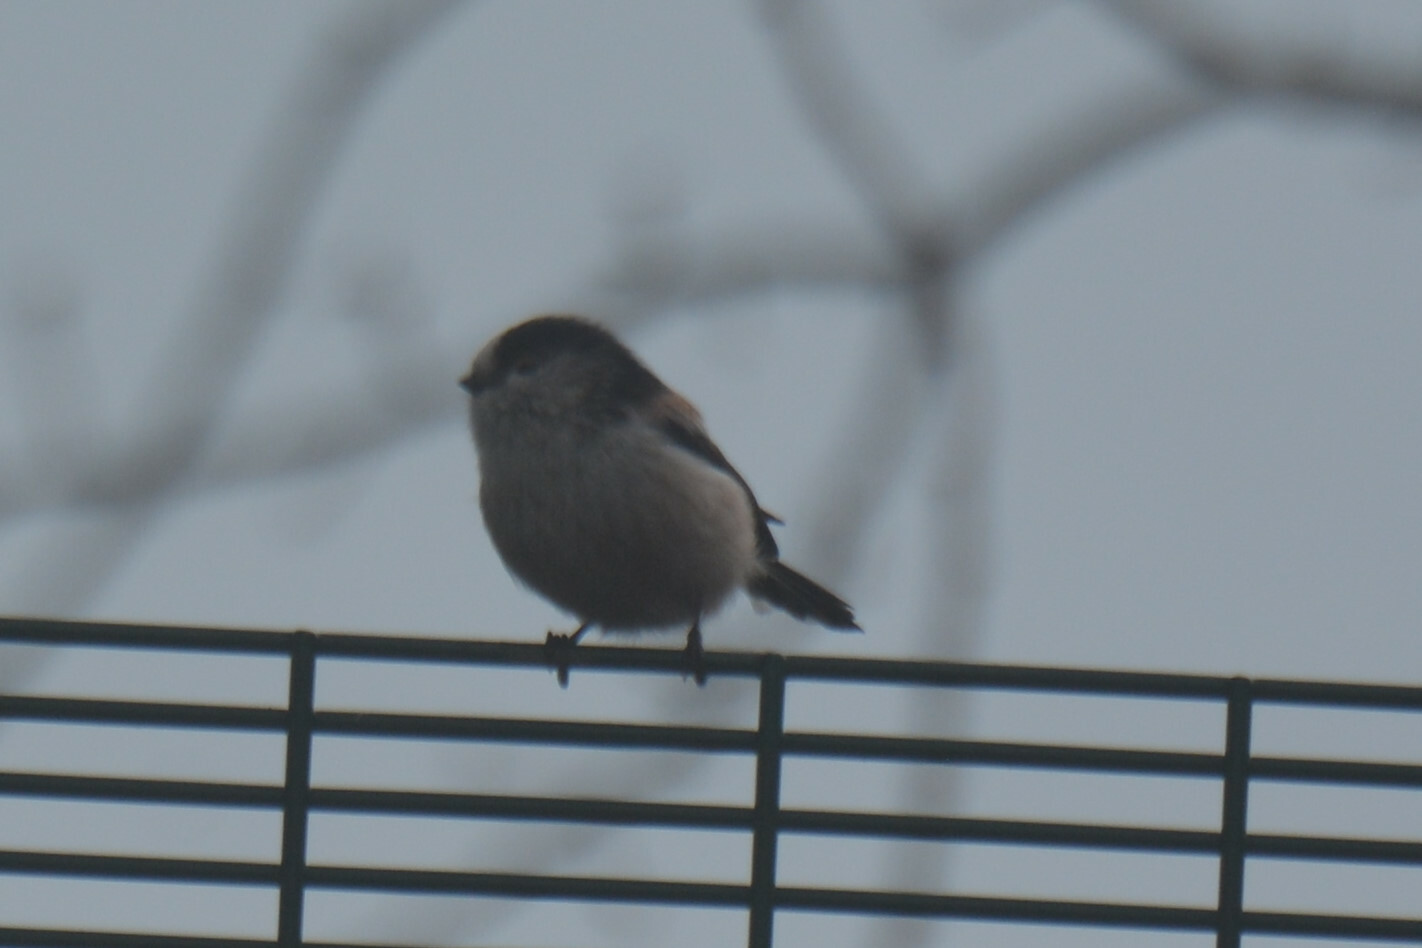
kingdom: Animalia
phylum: Chordata
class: Aves
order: Passeriformes
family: Aegithalidae
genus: Aegithalos
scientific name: Aegithalos caudatus
